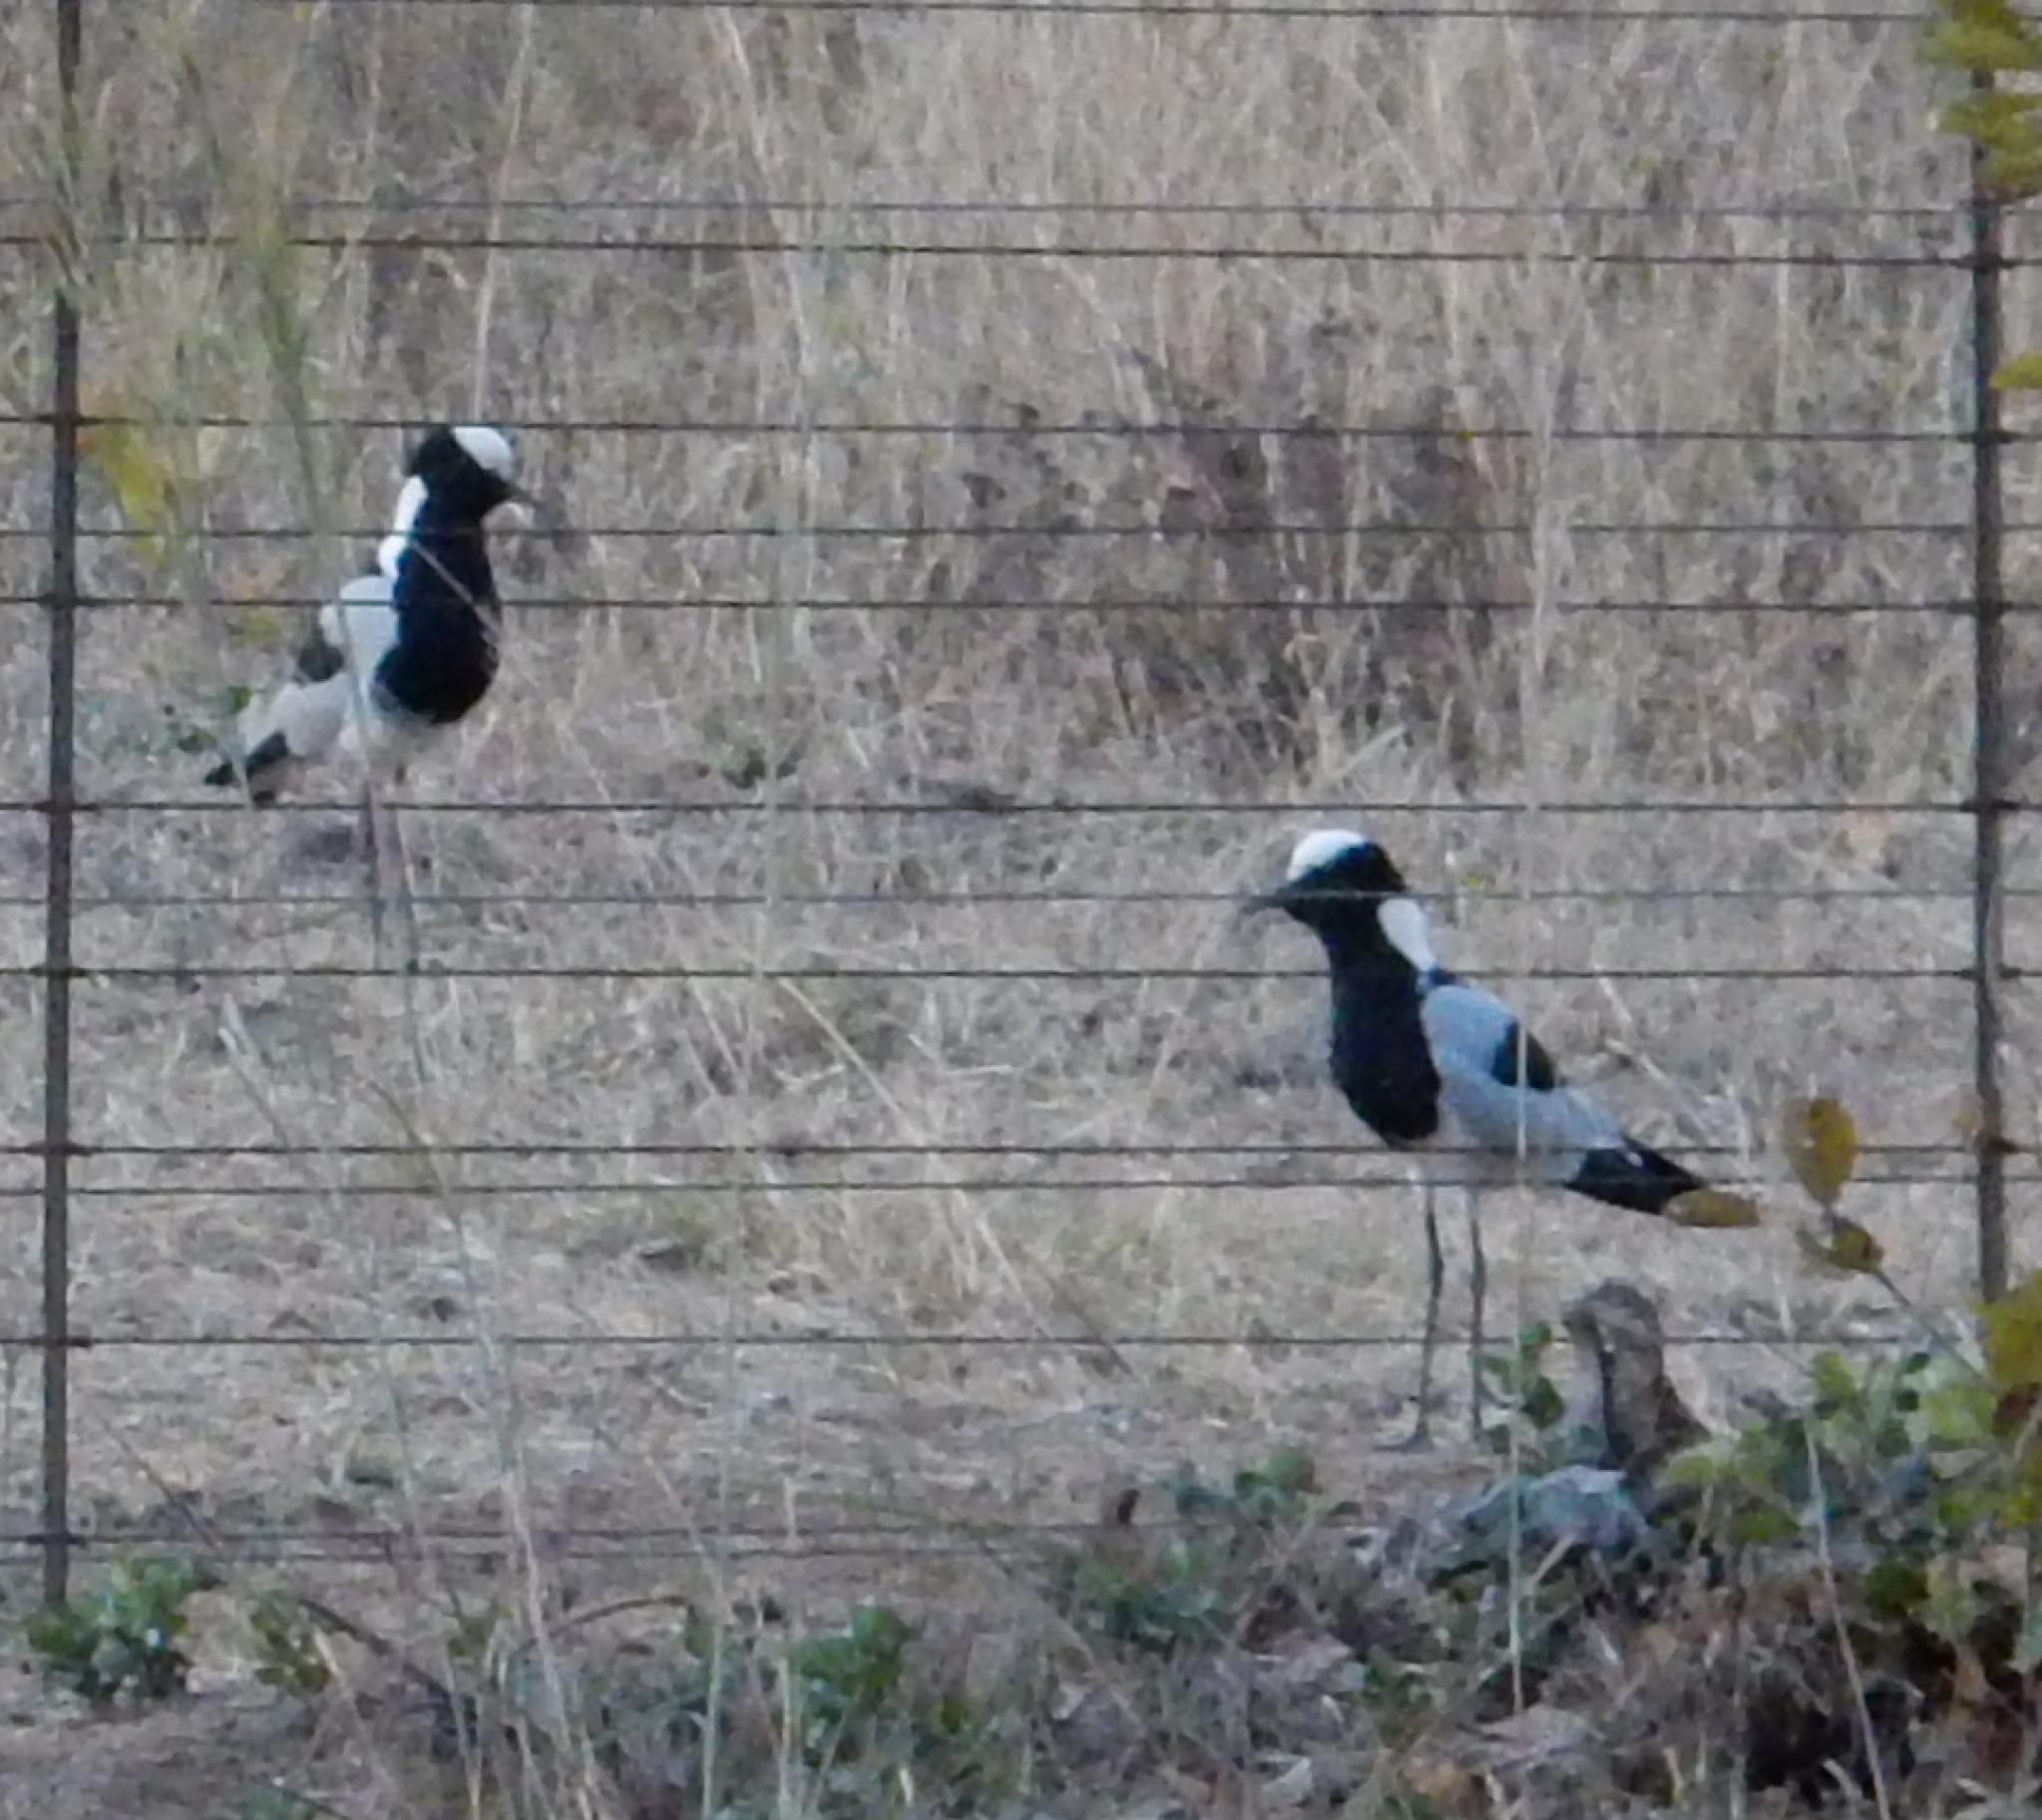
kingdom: Animalia
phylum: Chordata
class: Aves
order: Charadriiformes
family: Charadriidae
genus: Vanellus
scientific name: Vanellus armatus
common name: Blacksmith lapwing
